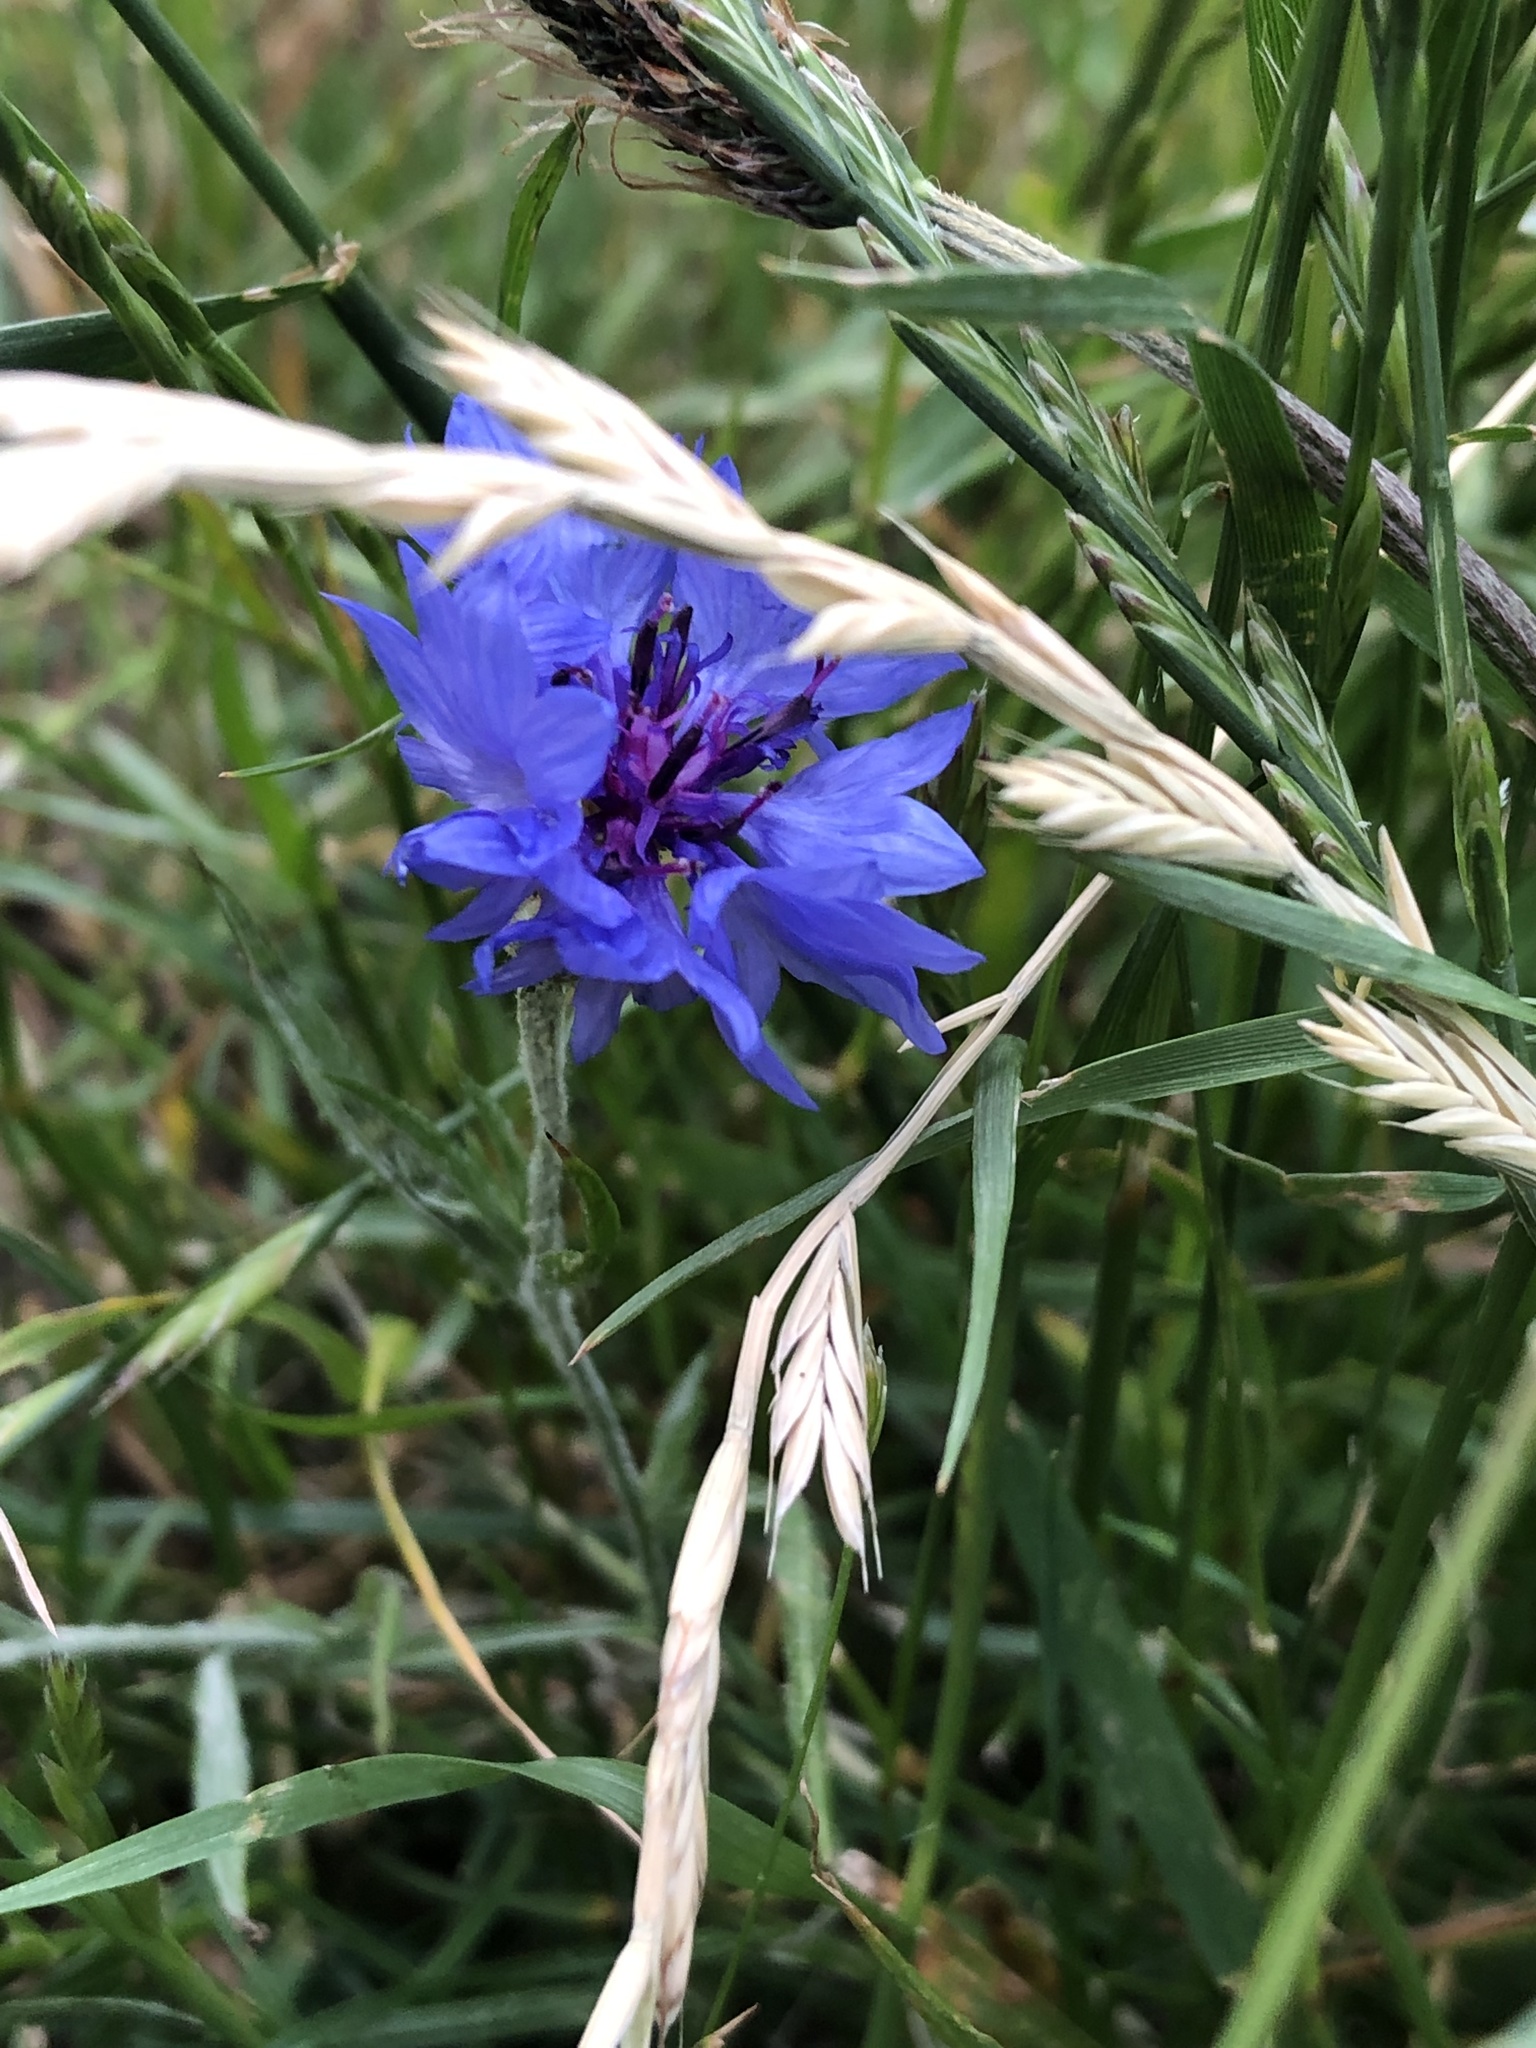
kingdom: Plantae
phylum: Tracheophyta
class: Magnoliopsida
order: Asterales
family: Asteraceae
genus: Centaurea
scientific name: Centaurea cyanus
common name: Cornflower
